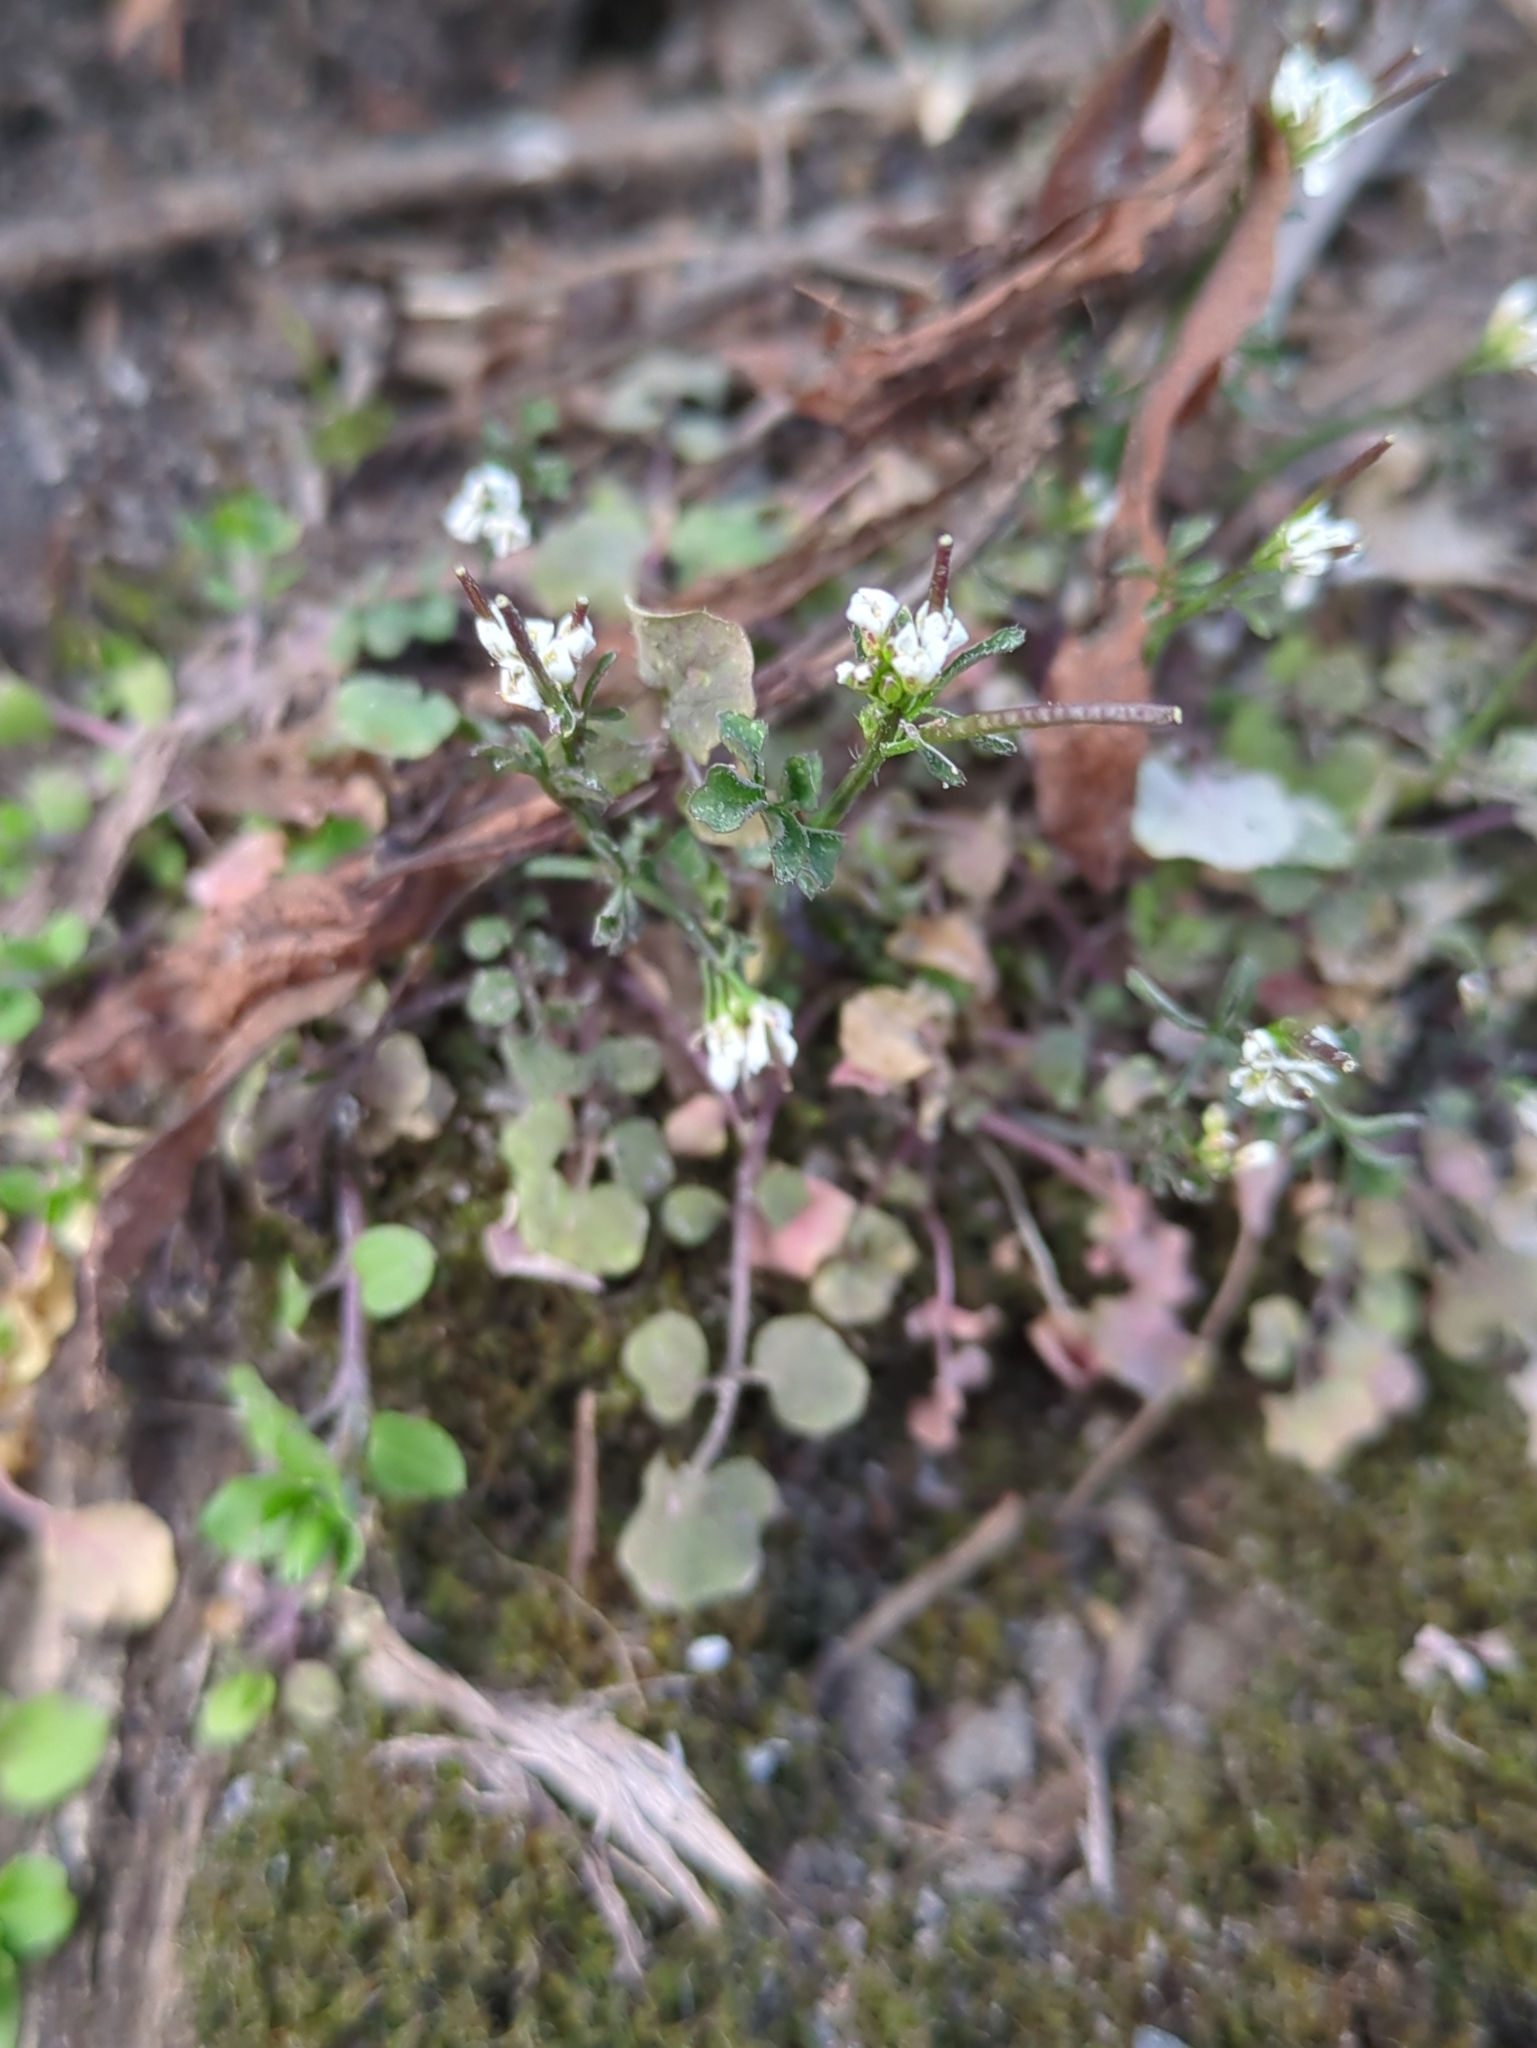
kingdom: Plantae
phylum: Tracheophyta
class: Magnoliopsida
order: Brassicales
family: Brassicaceae
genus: Cardamine
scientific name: Cardamine hirsuta
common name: Hairy bittercress
